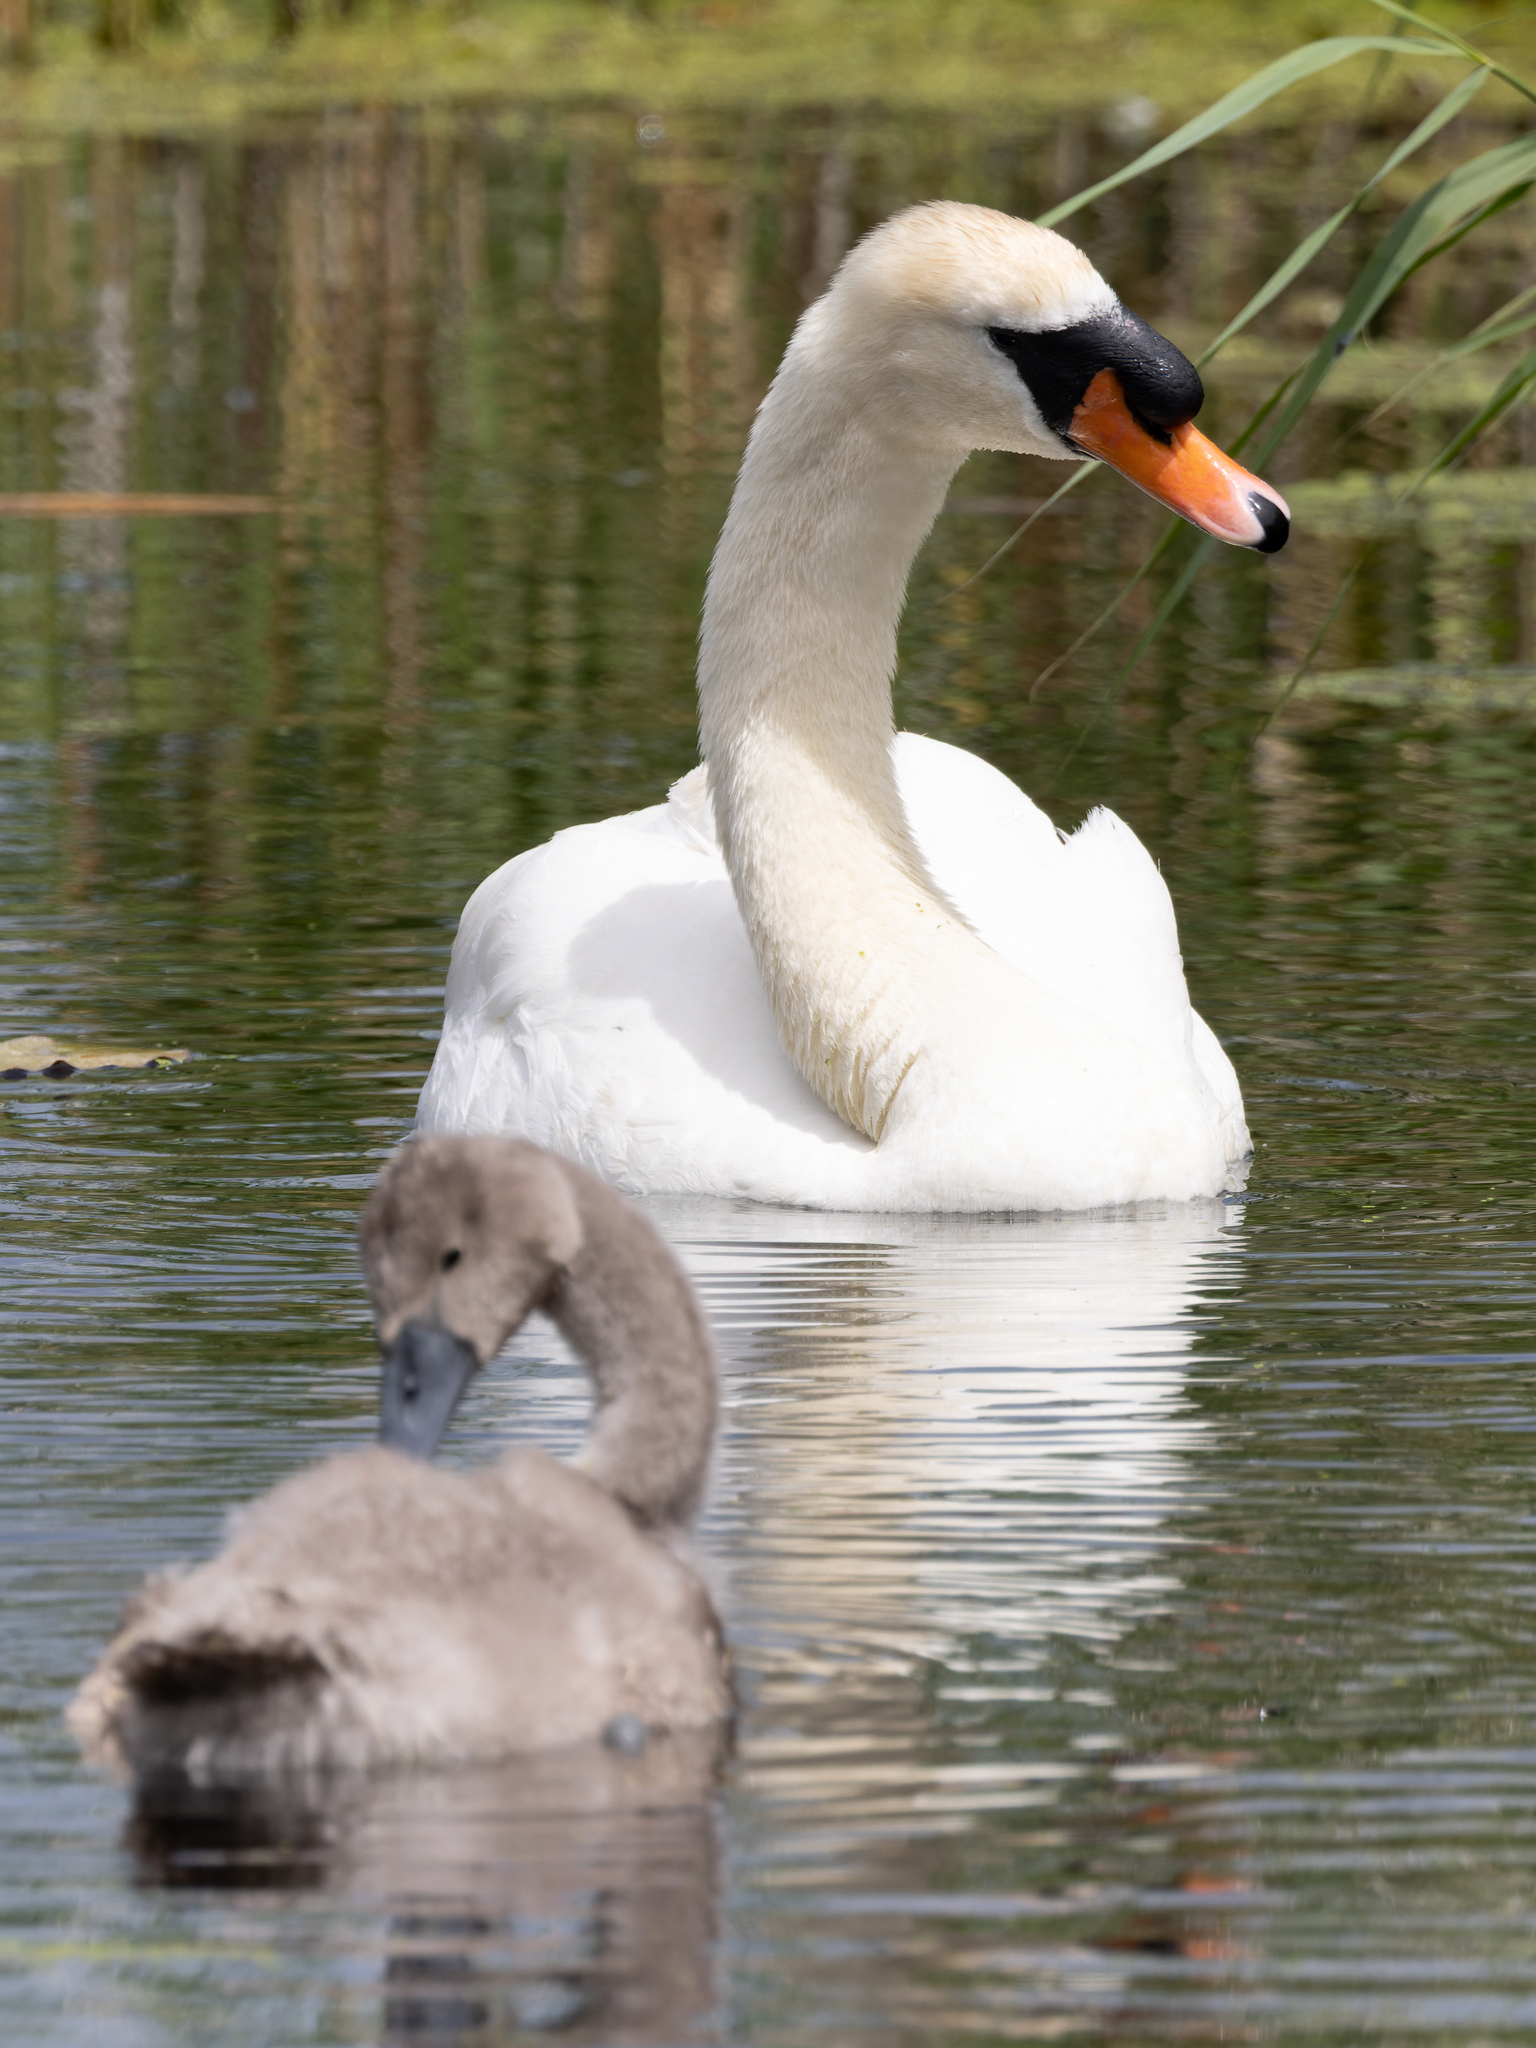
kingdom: Animalia
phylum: Chordata
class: Aves
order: Anseriformes
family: Anatidae
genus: Cygnus
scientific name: Cygnus olor
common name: Mute swan
